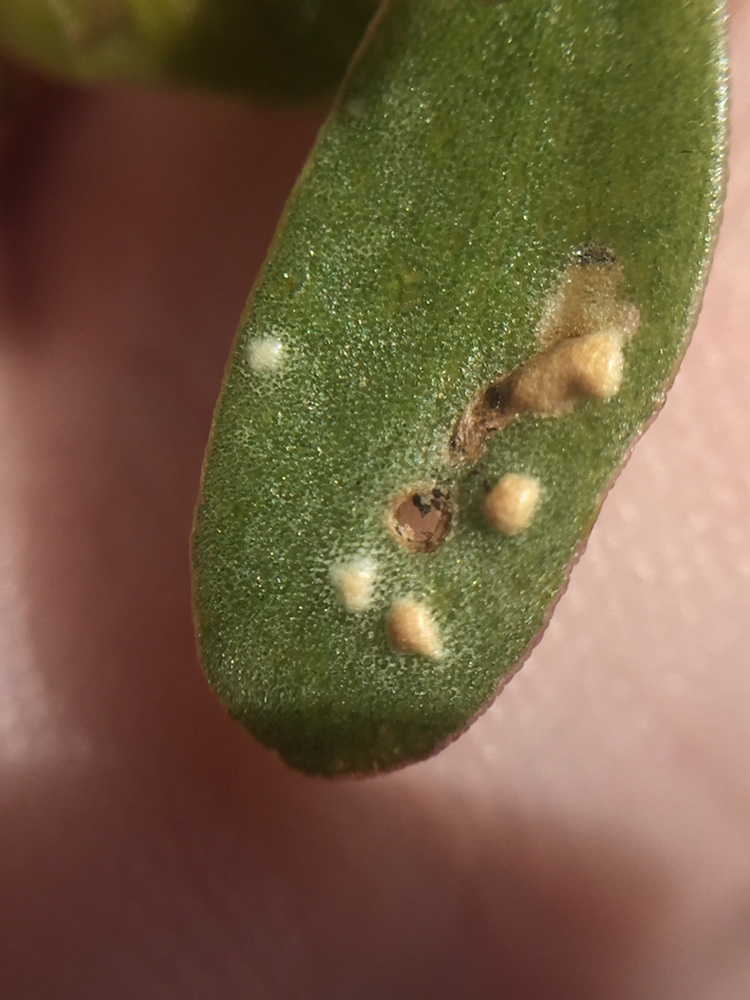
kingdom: Chromista
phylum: Oomycota
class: Peronosporea
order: Albuginales
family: Albuginaceae
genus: Wilsoniana
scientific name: Wilsoniana portulacae
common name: Purslane white rust
